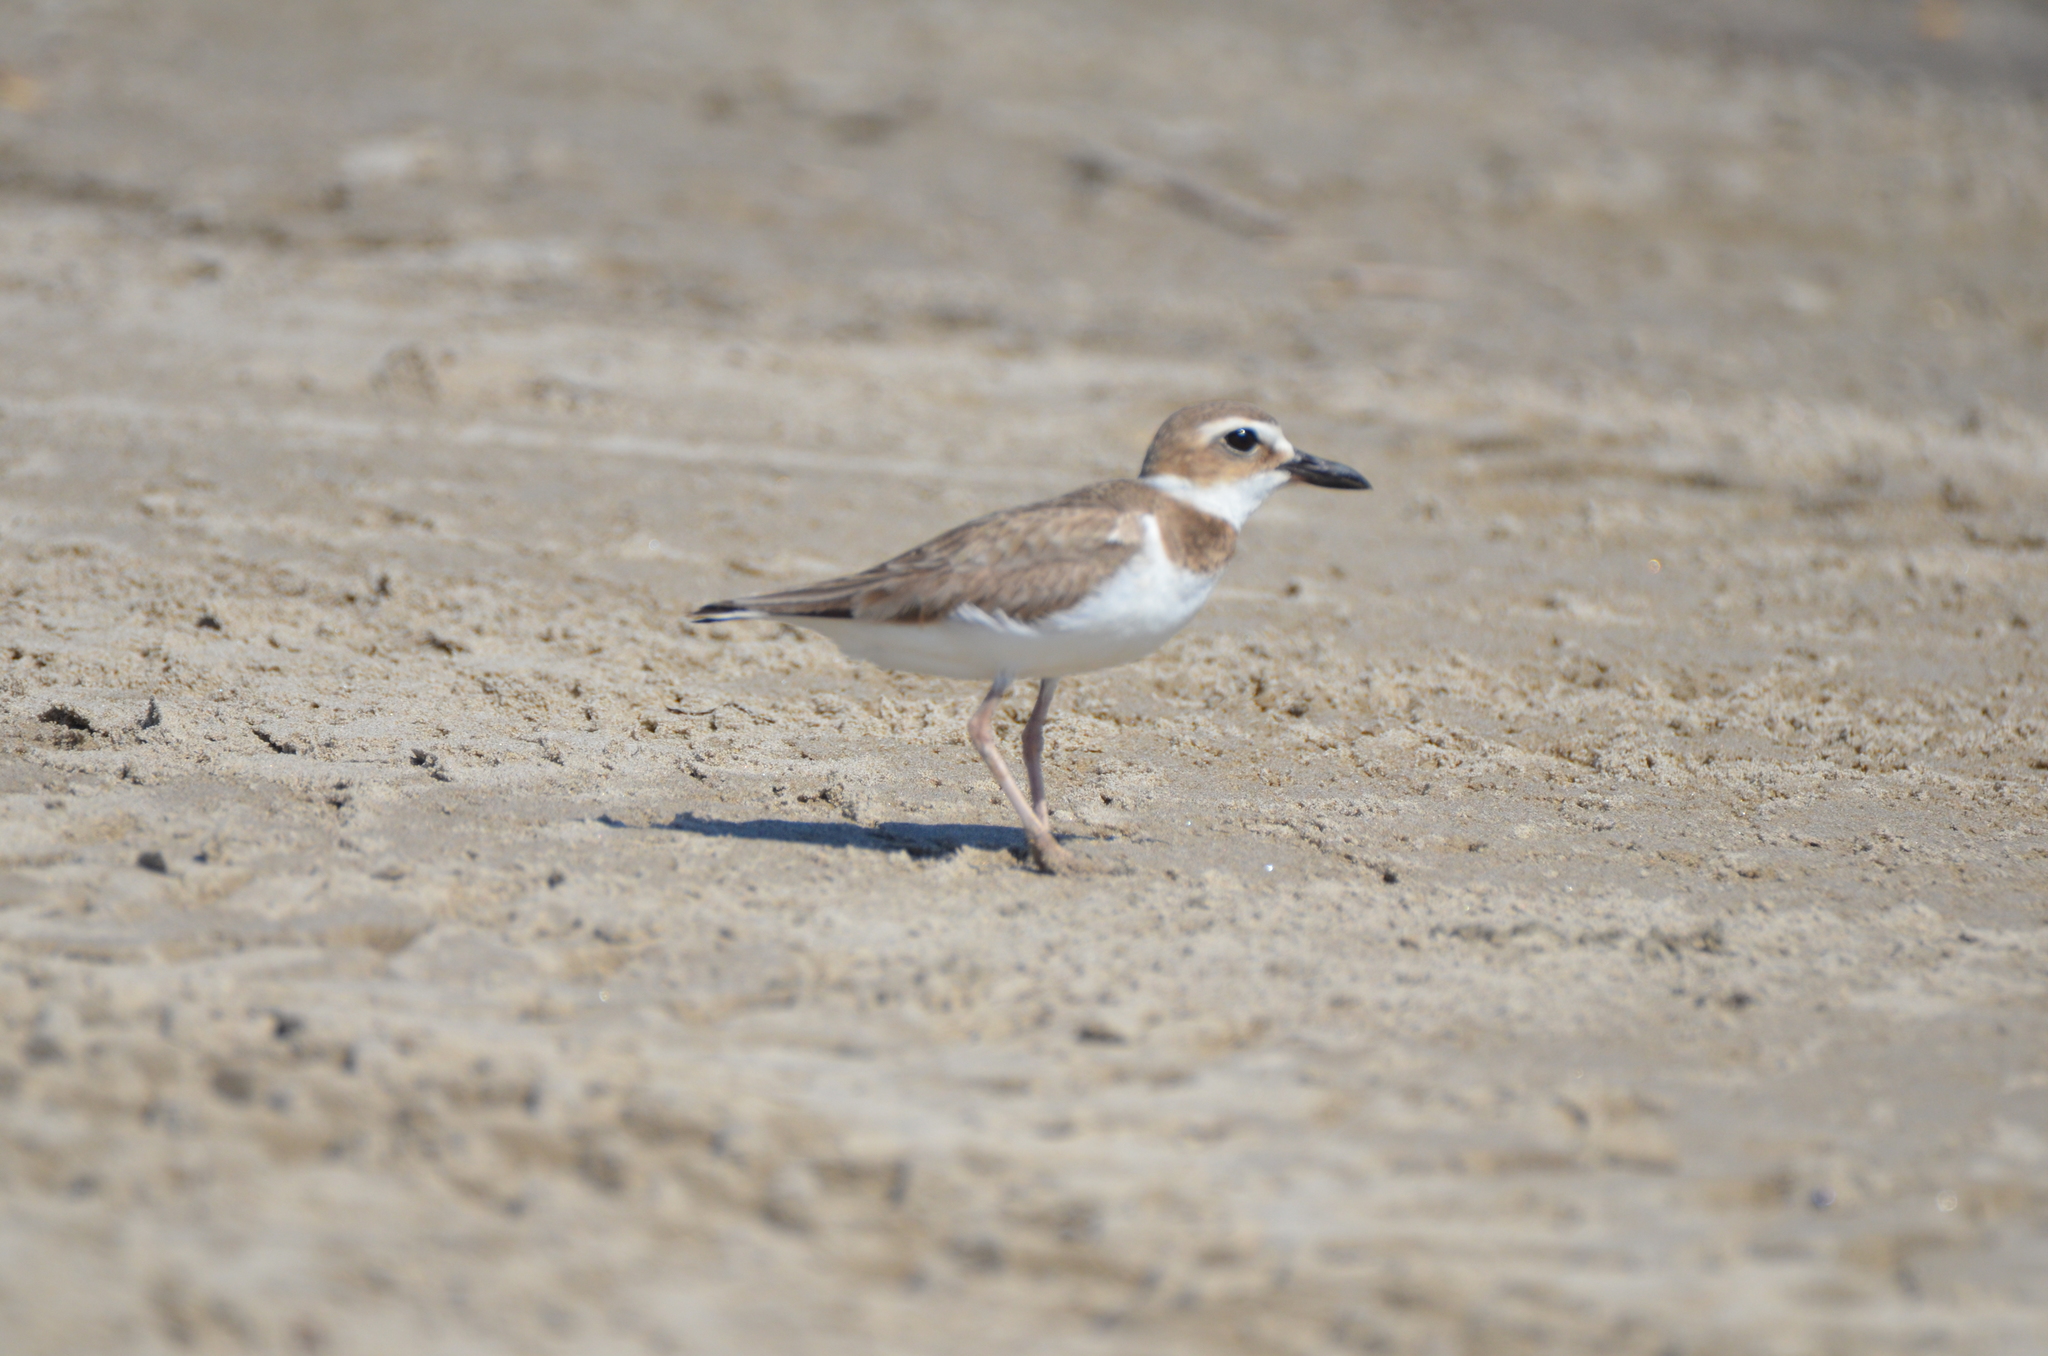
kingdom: Animalia
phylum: Chordata
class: Aves
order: Charadriiformes
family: Charadriidae
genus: Anarhynchus
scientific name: Anarhynchus
